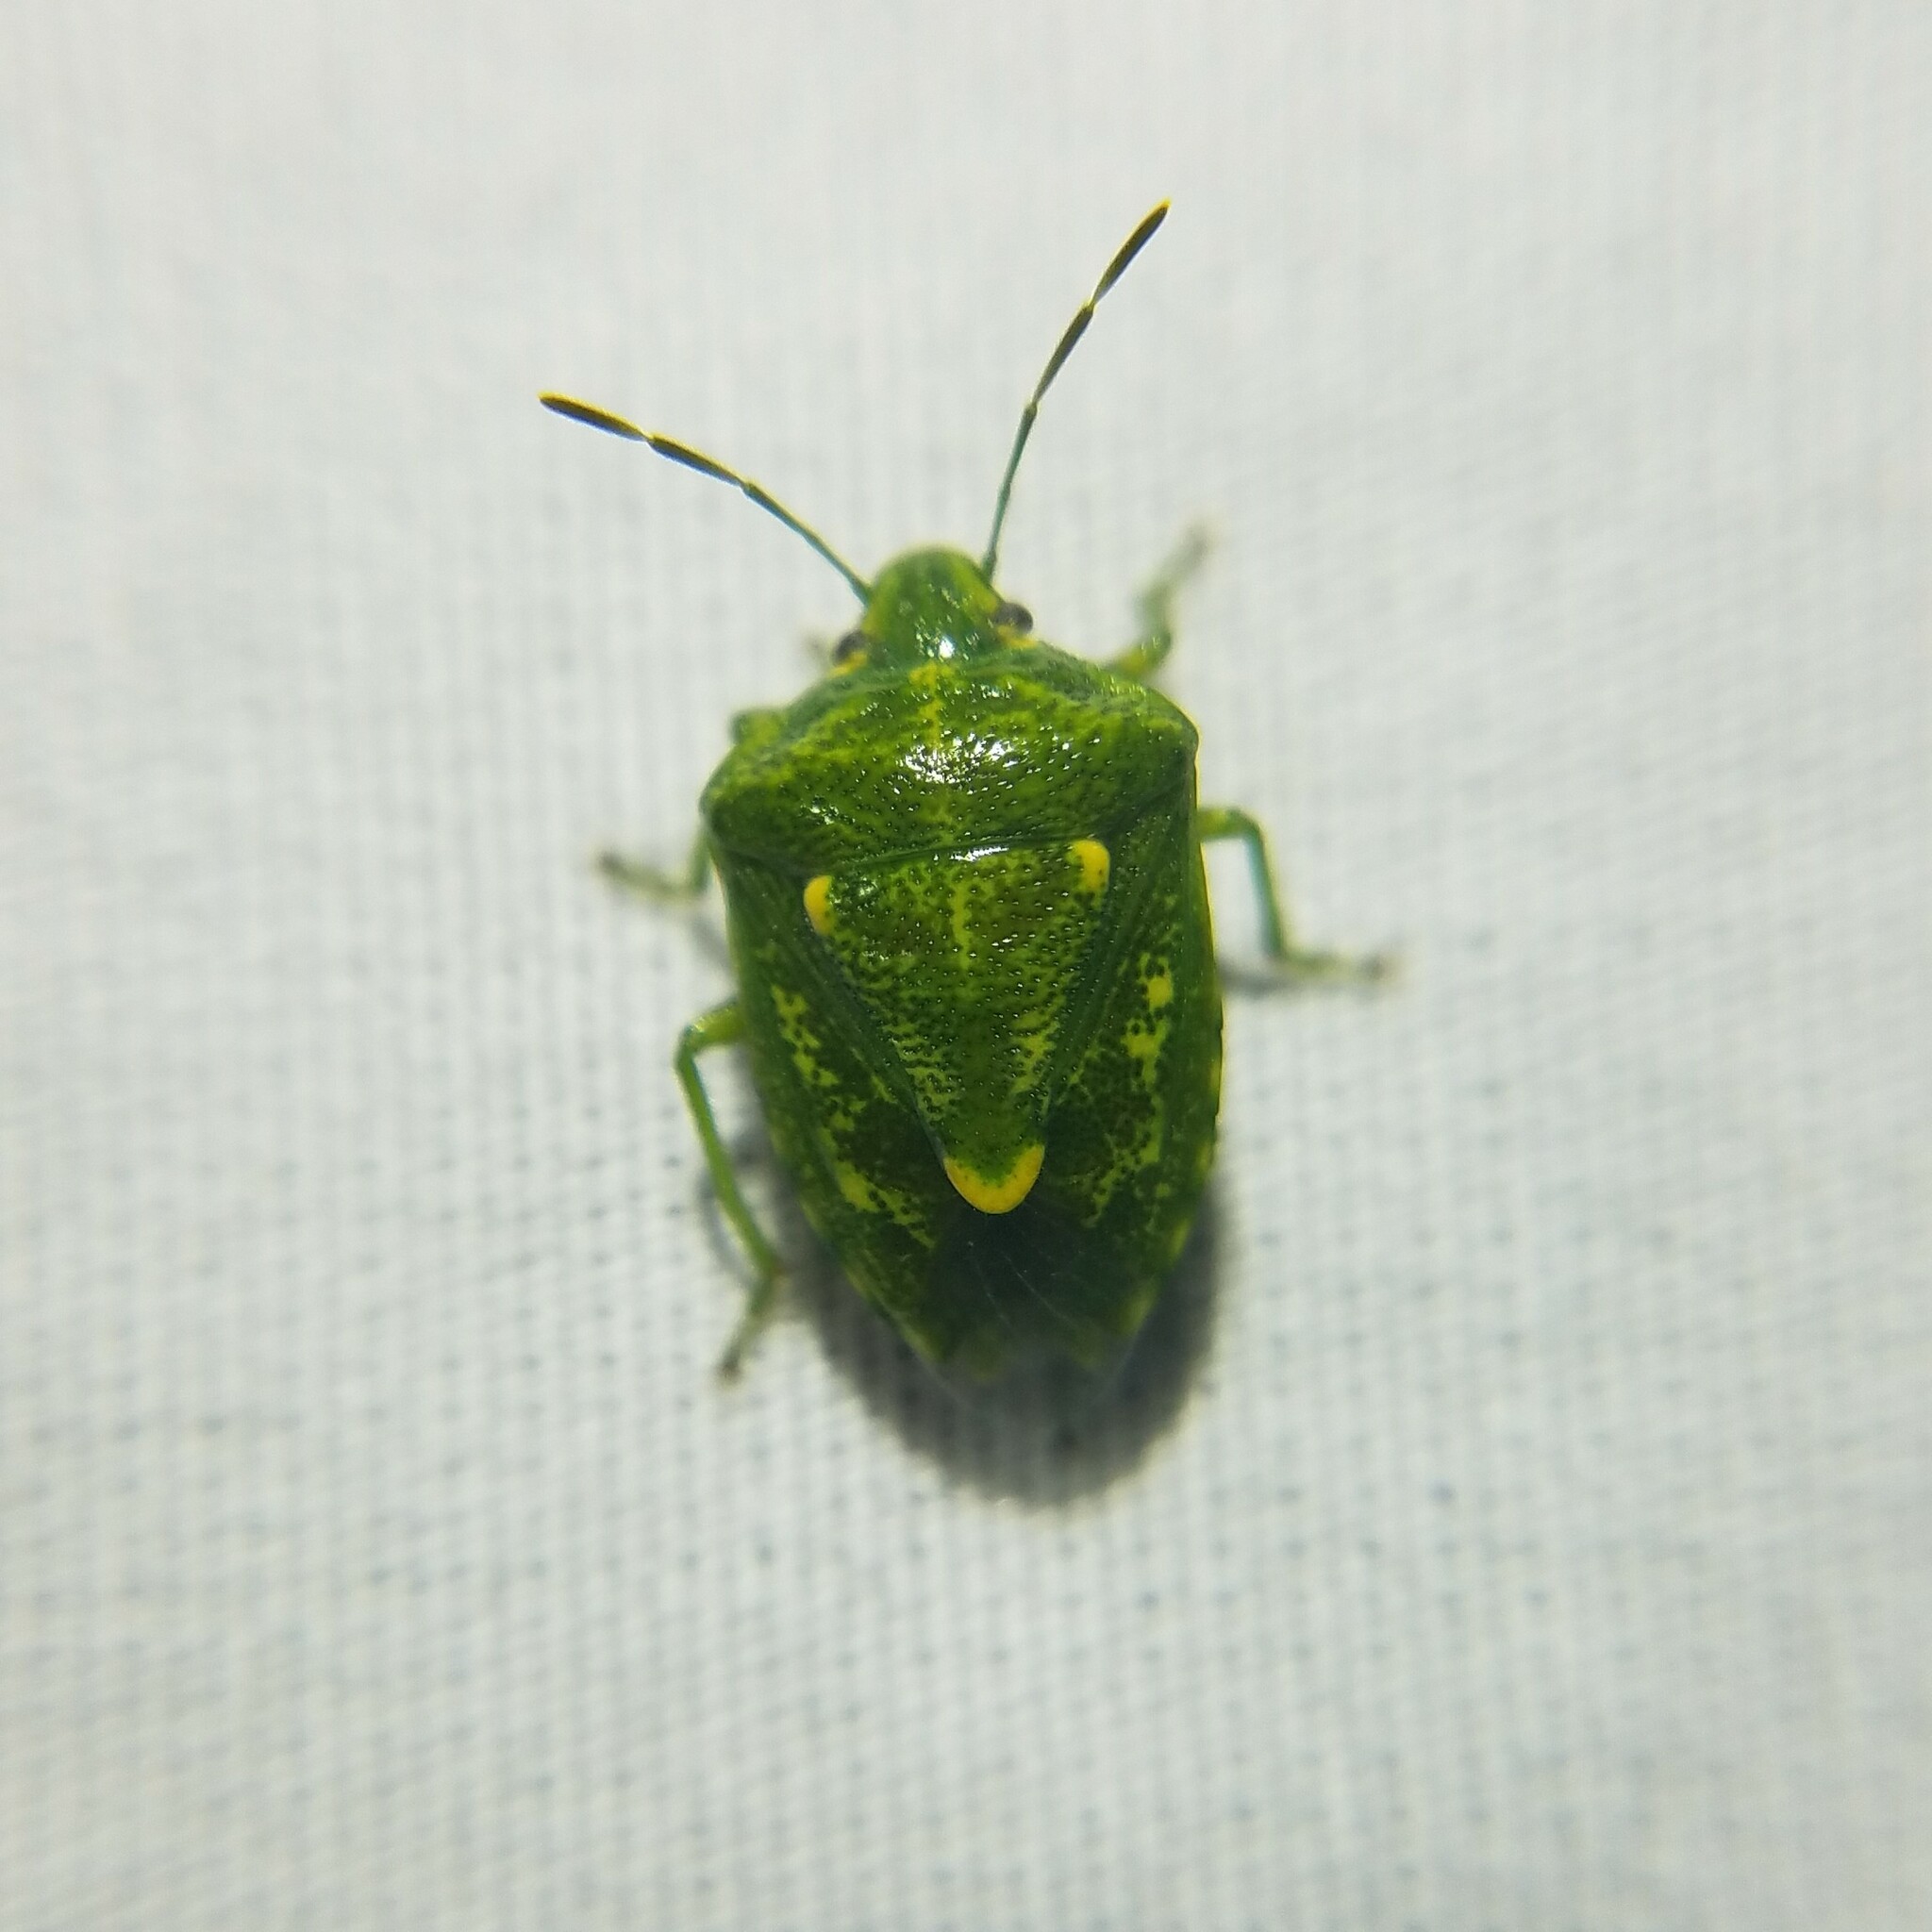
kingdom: Animalia
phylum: Arthropoda
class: Insecta
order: Hemiptera
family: Pentatomidae
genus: Banasa
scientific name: Banasa euchlora
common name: Cedar berry bug
